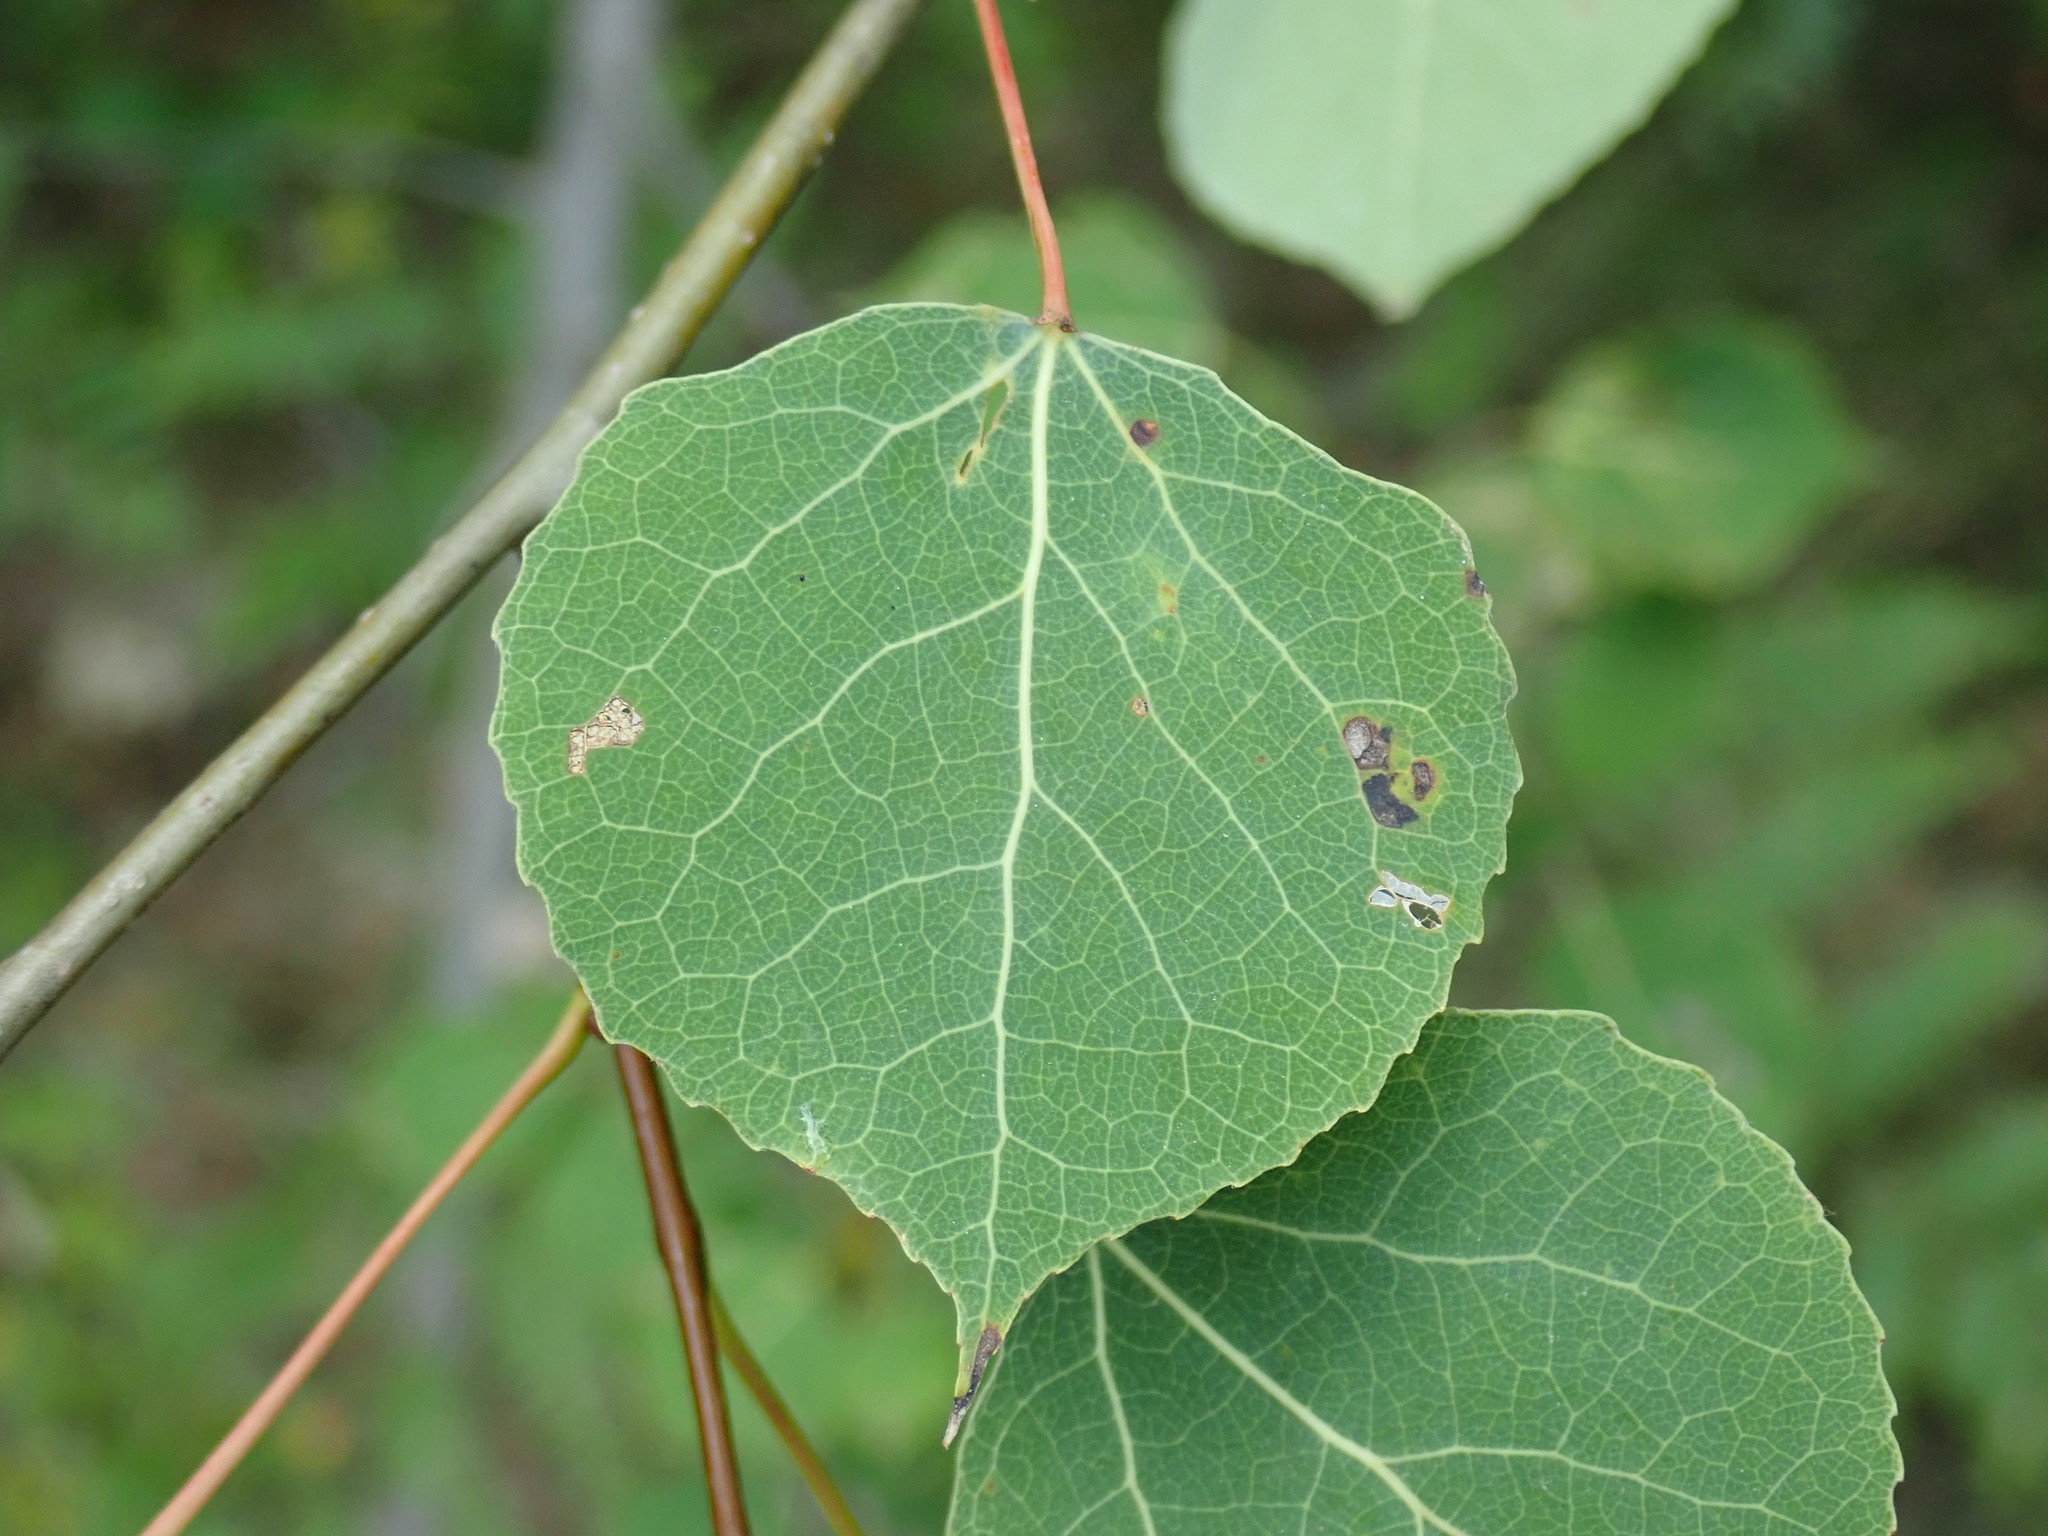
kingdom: Plantae
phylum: Tracheophyta
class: Magnoliopsida
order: Malpighiales
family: Salicaceae
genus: Populus
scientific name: Populus tremuloides
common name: Quaking aspen
